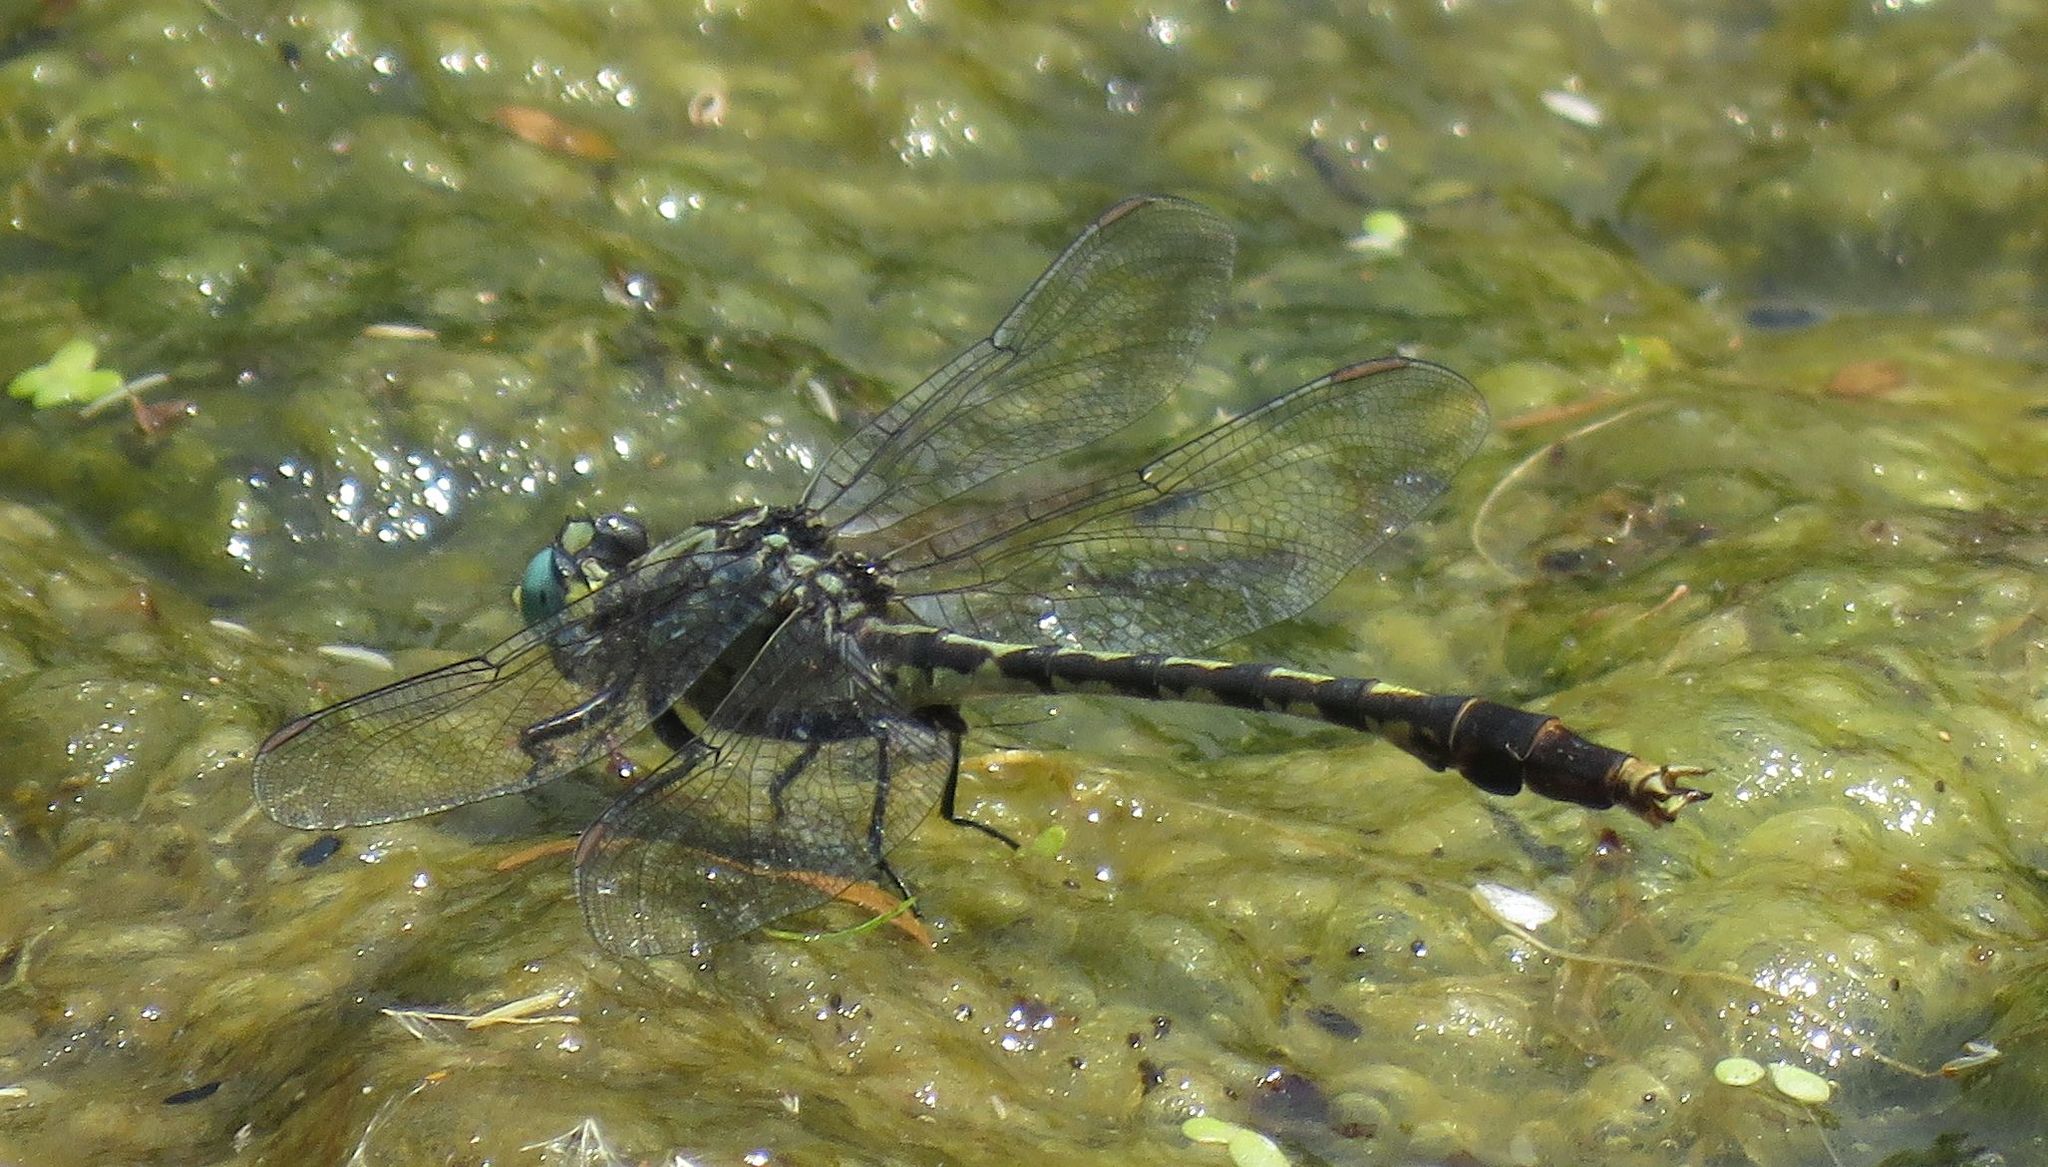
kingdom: Animalia
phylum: Arthropoda
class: Insecta
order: Odonata
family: Gomphidae
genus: Arigomphus
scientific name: Arigomphus villosipes
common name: Unicorn clubtail
